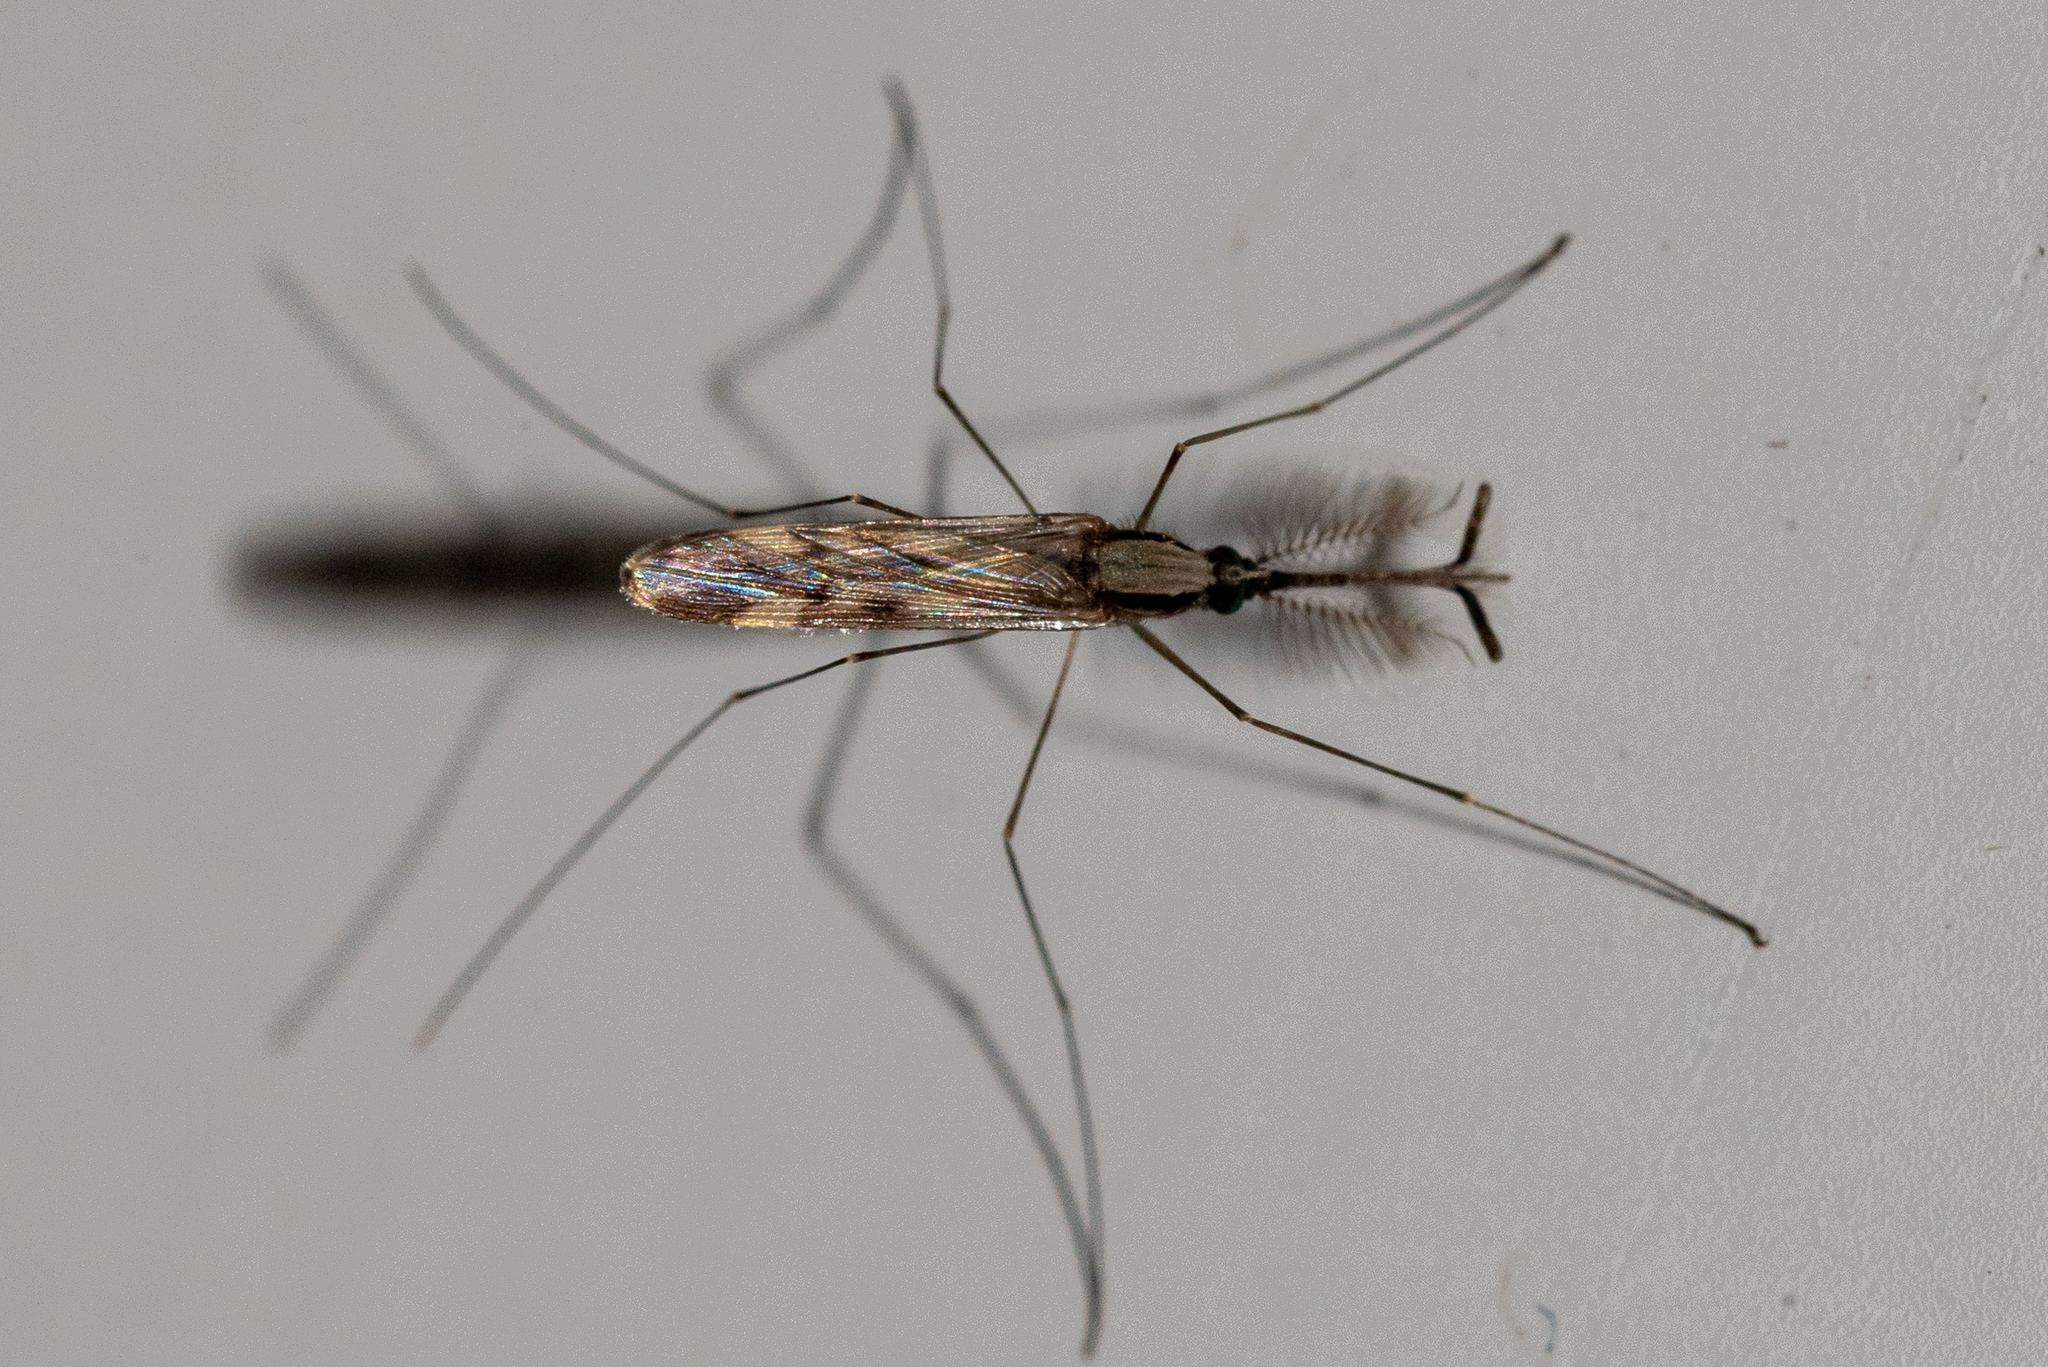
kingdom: Animalia
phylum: Arthropoda
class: Insecta
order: Diptera
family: Culicidae
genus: Anopheles
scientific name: Anopheles punctipennis
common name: Woodland malaria mosquito
